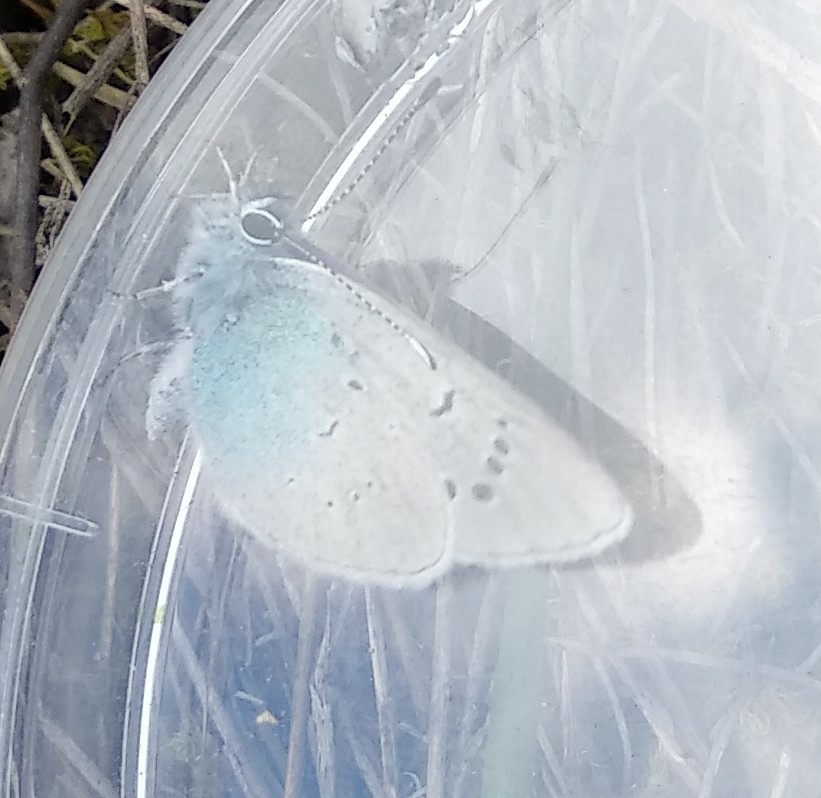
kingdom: Animalia
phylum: Arthropoda
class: Insecta
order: Lepidoptera
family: Lycaenidae
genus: Glaucopsyche
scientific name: Glaucopsyche alexis
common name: Green-underside blue
